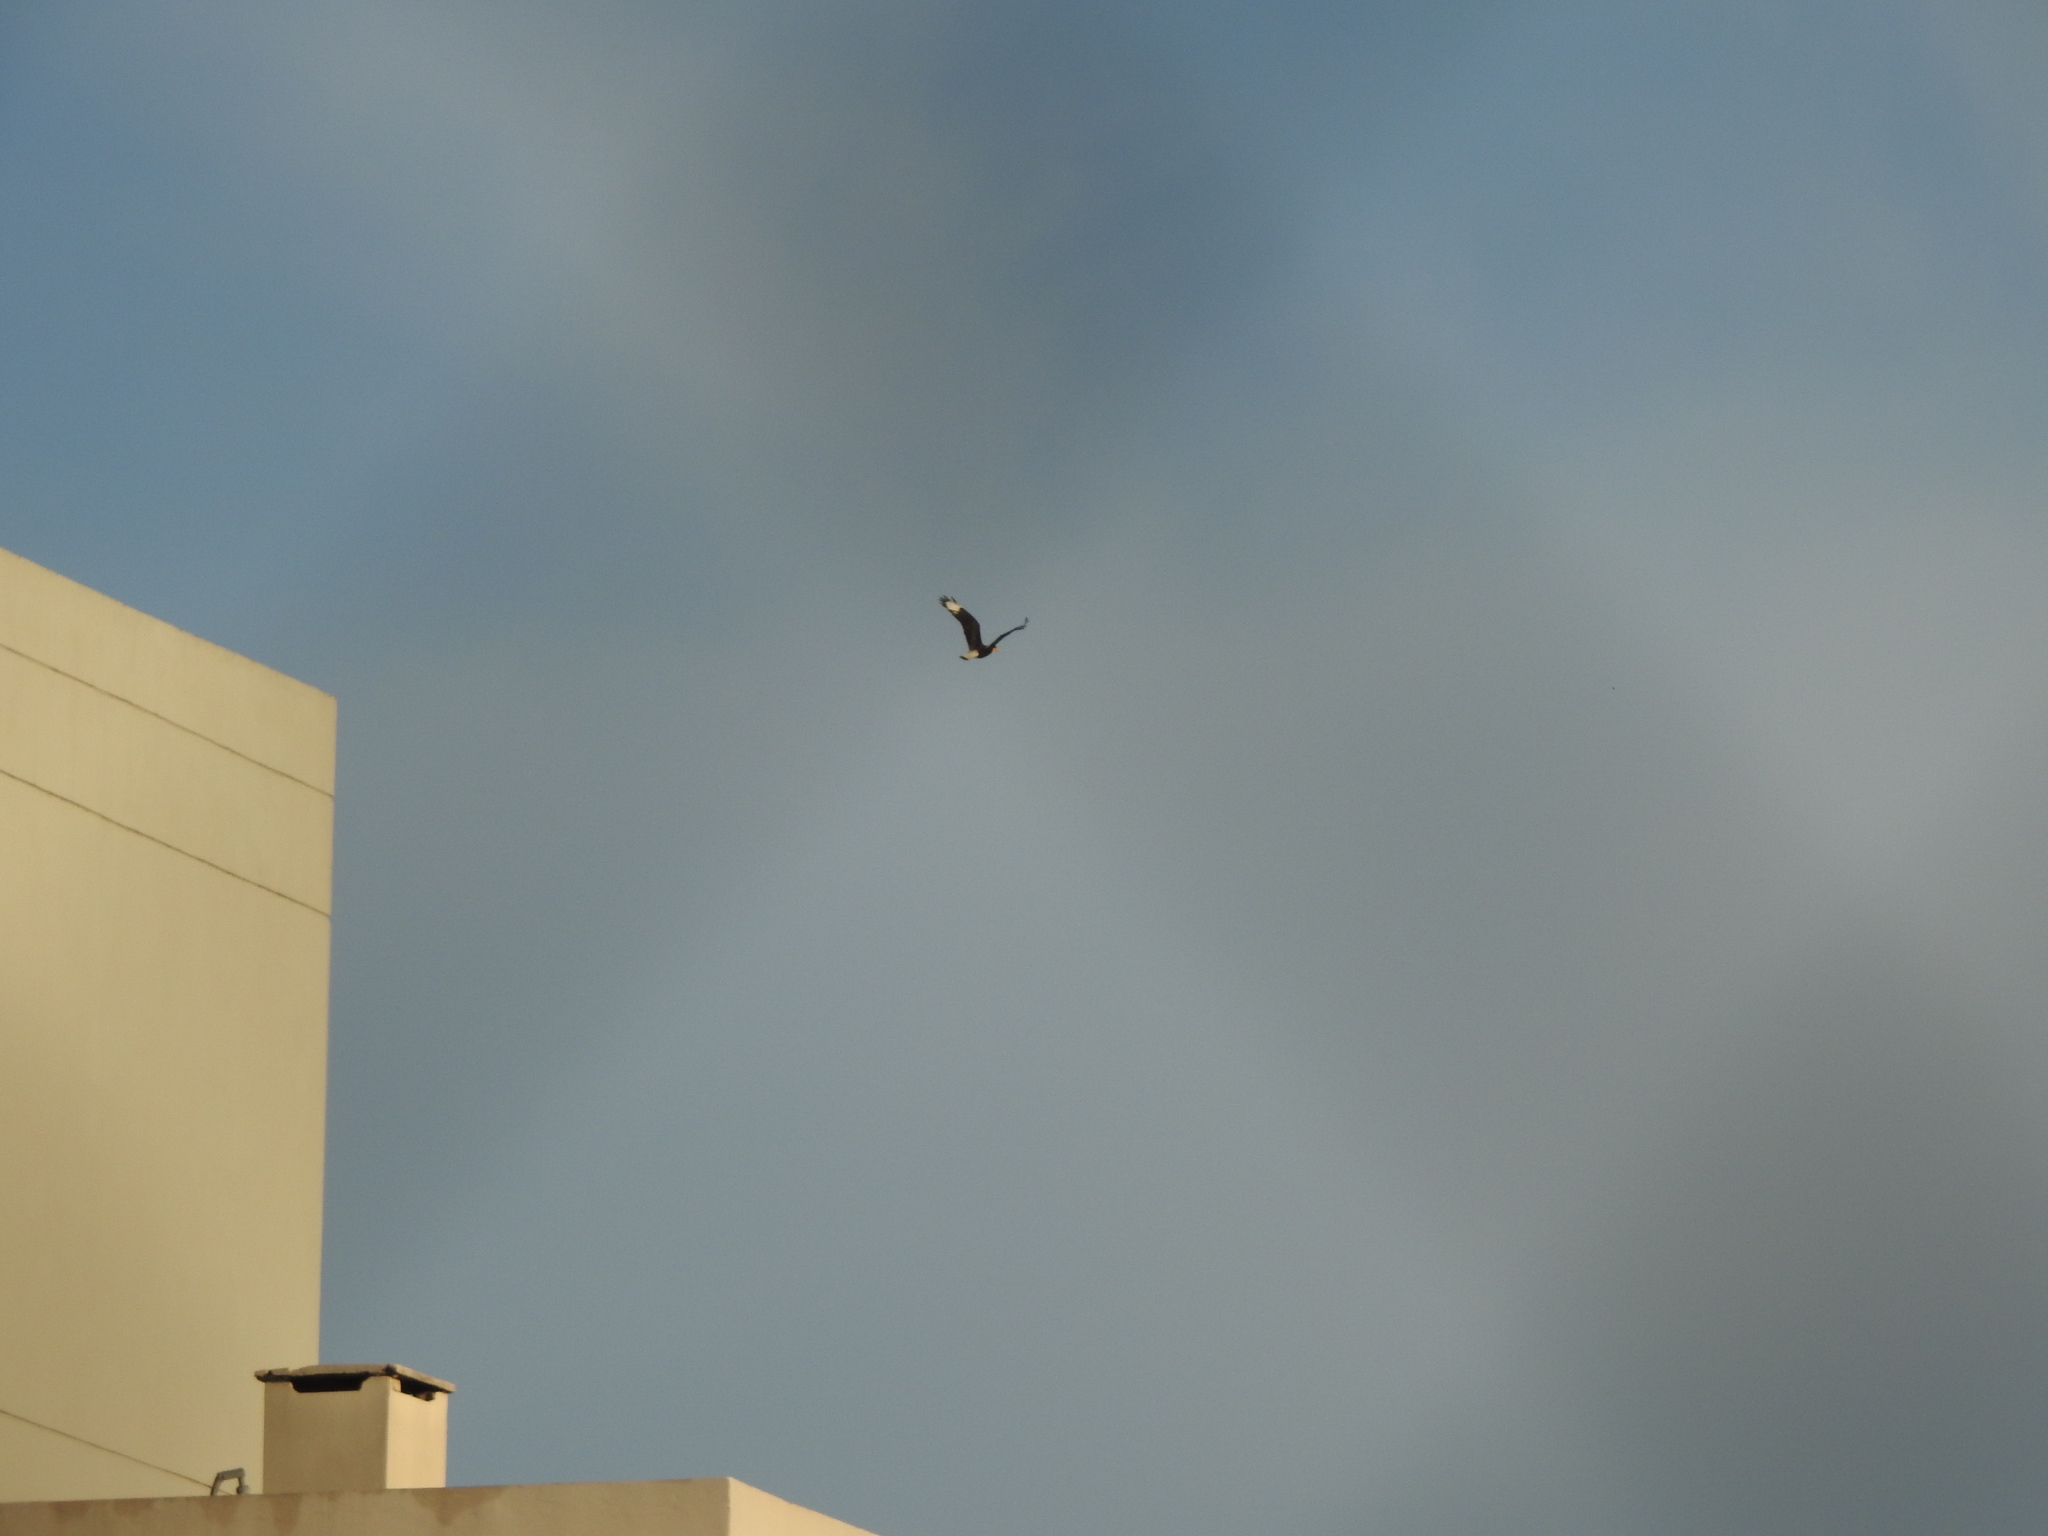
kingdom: Animalia
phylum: Chordata
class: Aves
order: Falconiformes
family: Falconidae
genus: Caracara
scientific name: Caracara plancus
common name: Southern caracara
